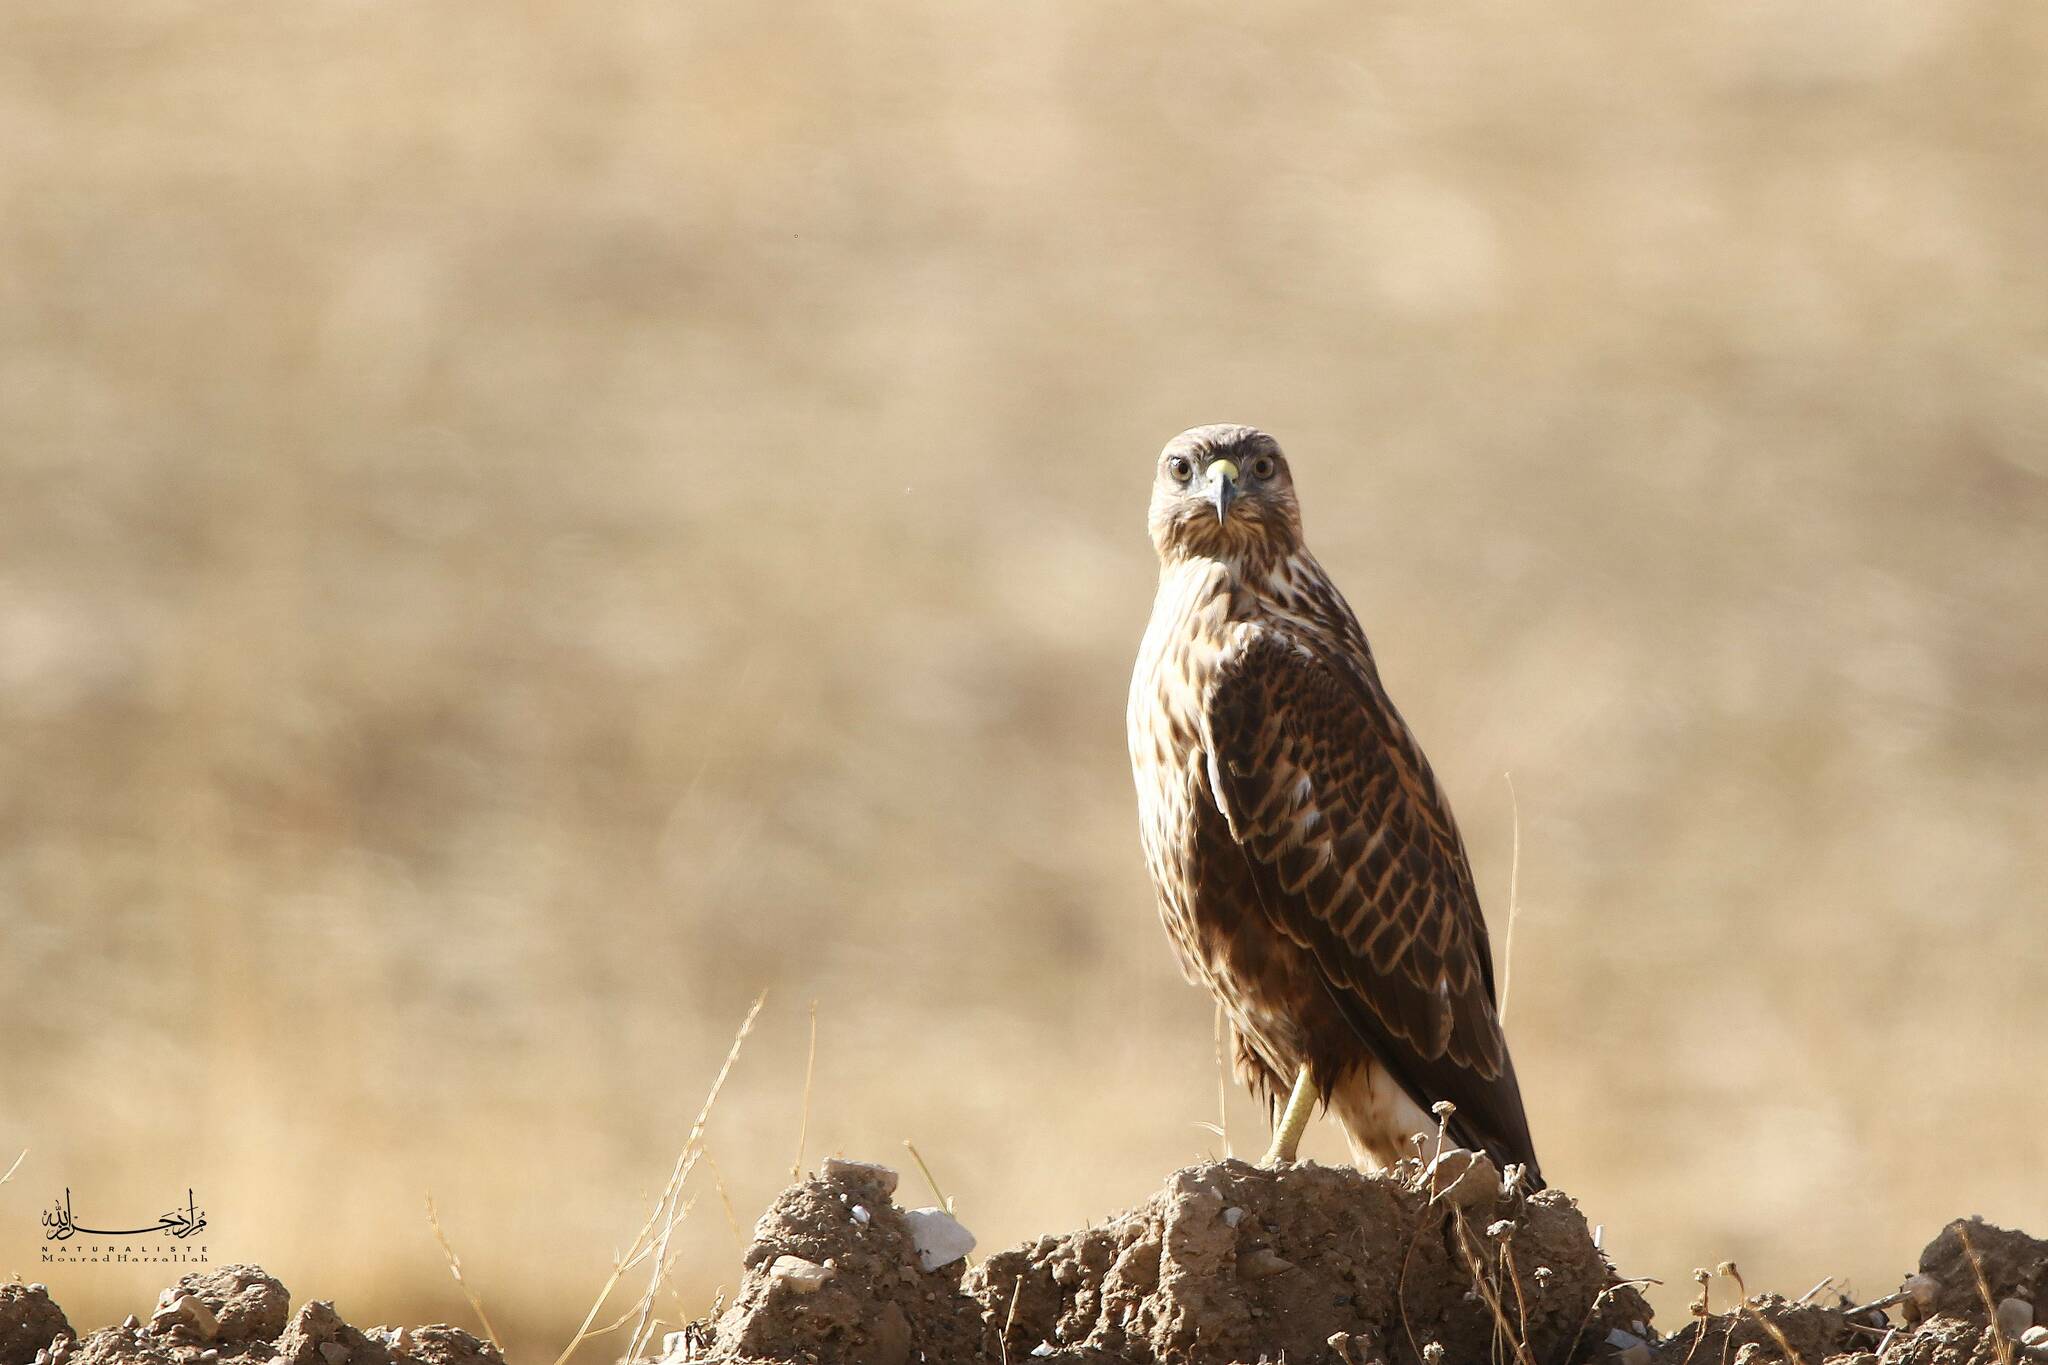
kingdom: Animalia
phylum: Chordata
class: Aves
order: Accipitriformes
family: Accipitridae
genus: Buteo
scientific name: Buteo rufinus
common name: Long-legged buzzard
